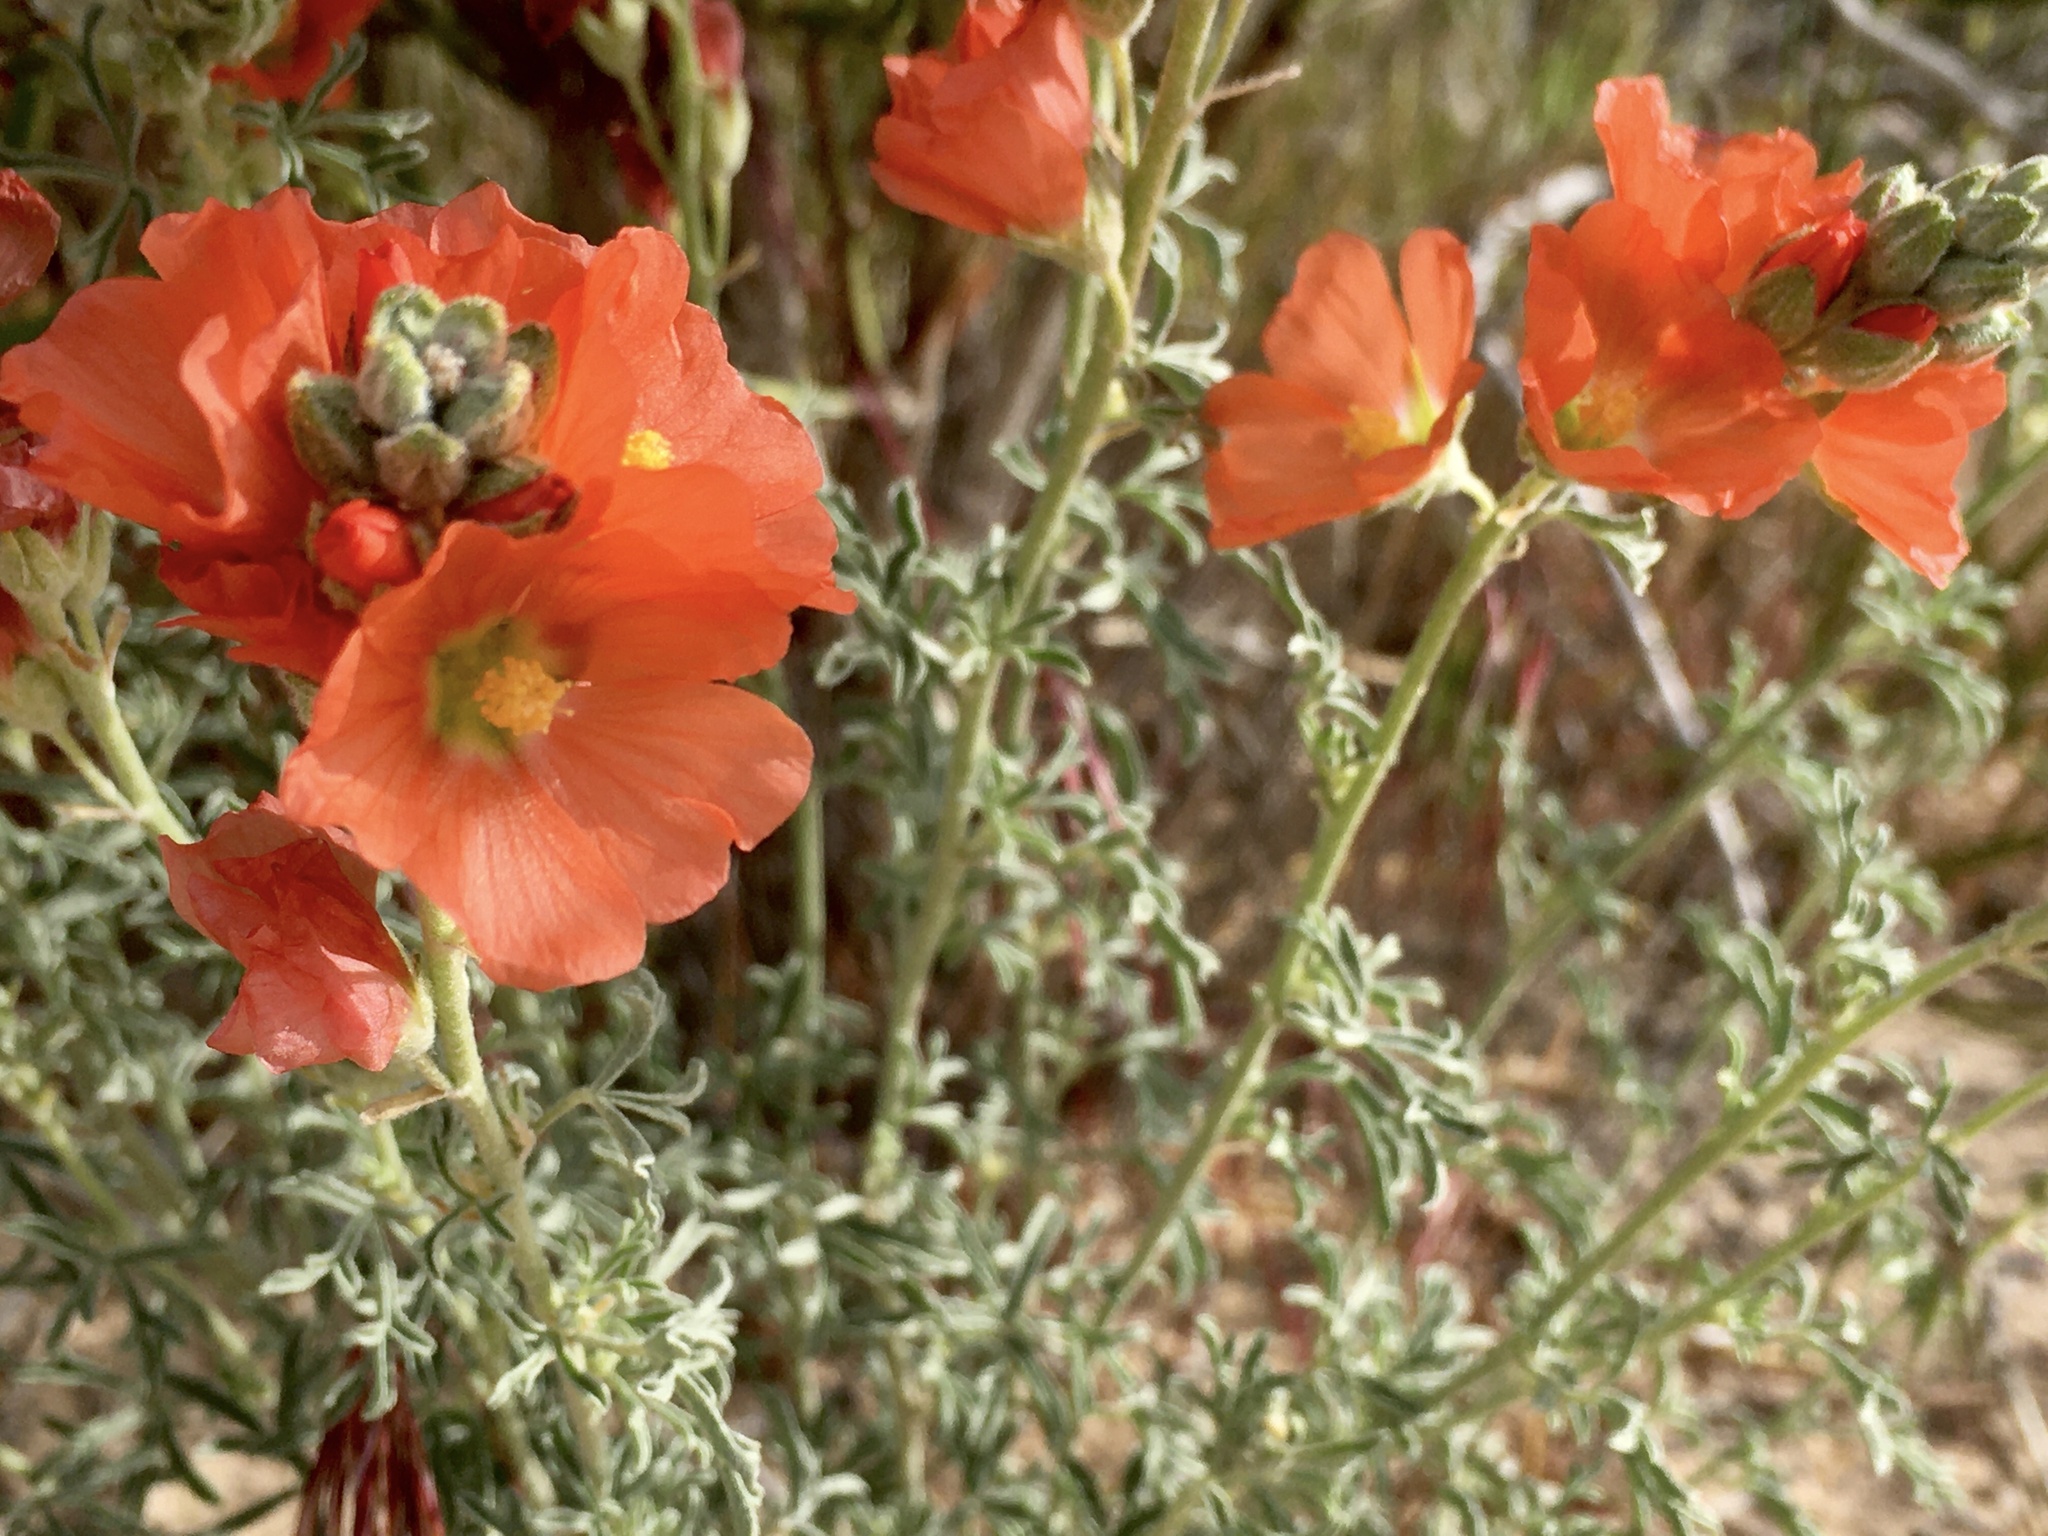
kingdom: Plantae
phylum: Tracheophyta
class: Magnoliopsida
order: Malvales
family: Malvaceae
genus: Sphaeralcea
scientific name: Sphaeralcea coccinea
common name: Moss-rose
